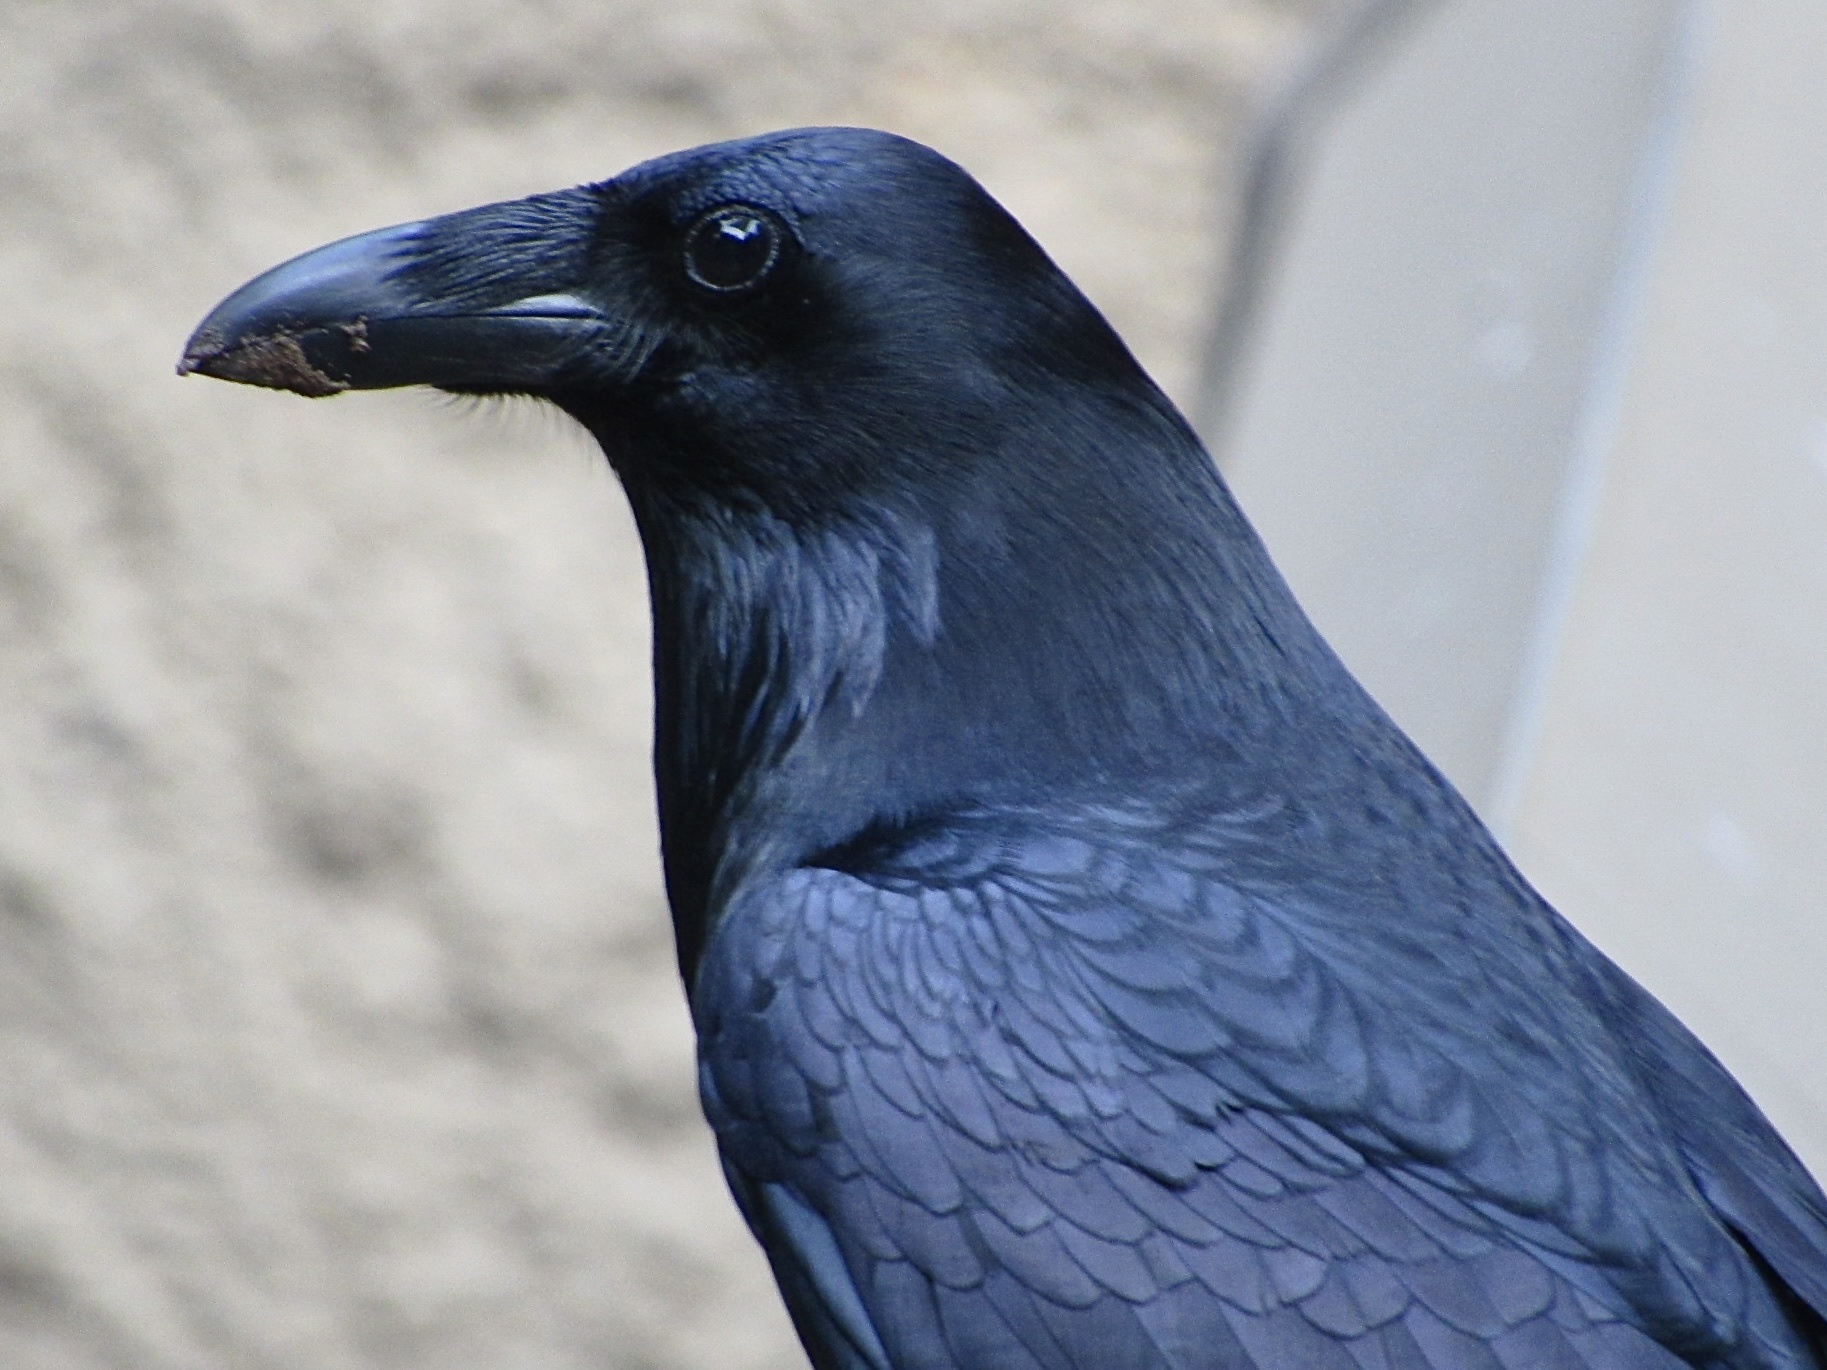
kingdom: Animalia
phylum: Chordata
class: Aves
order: Passeriformes
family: Corvidae
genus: Corvus
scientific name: Corvus corax
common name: Common raven
